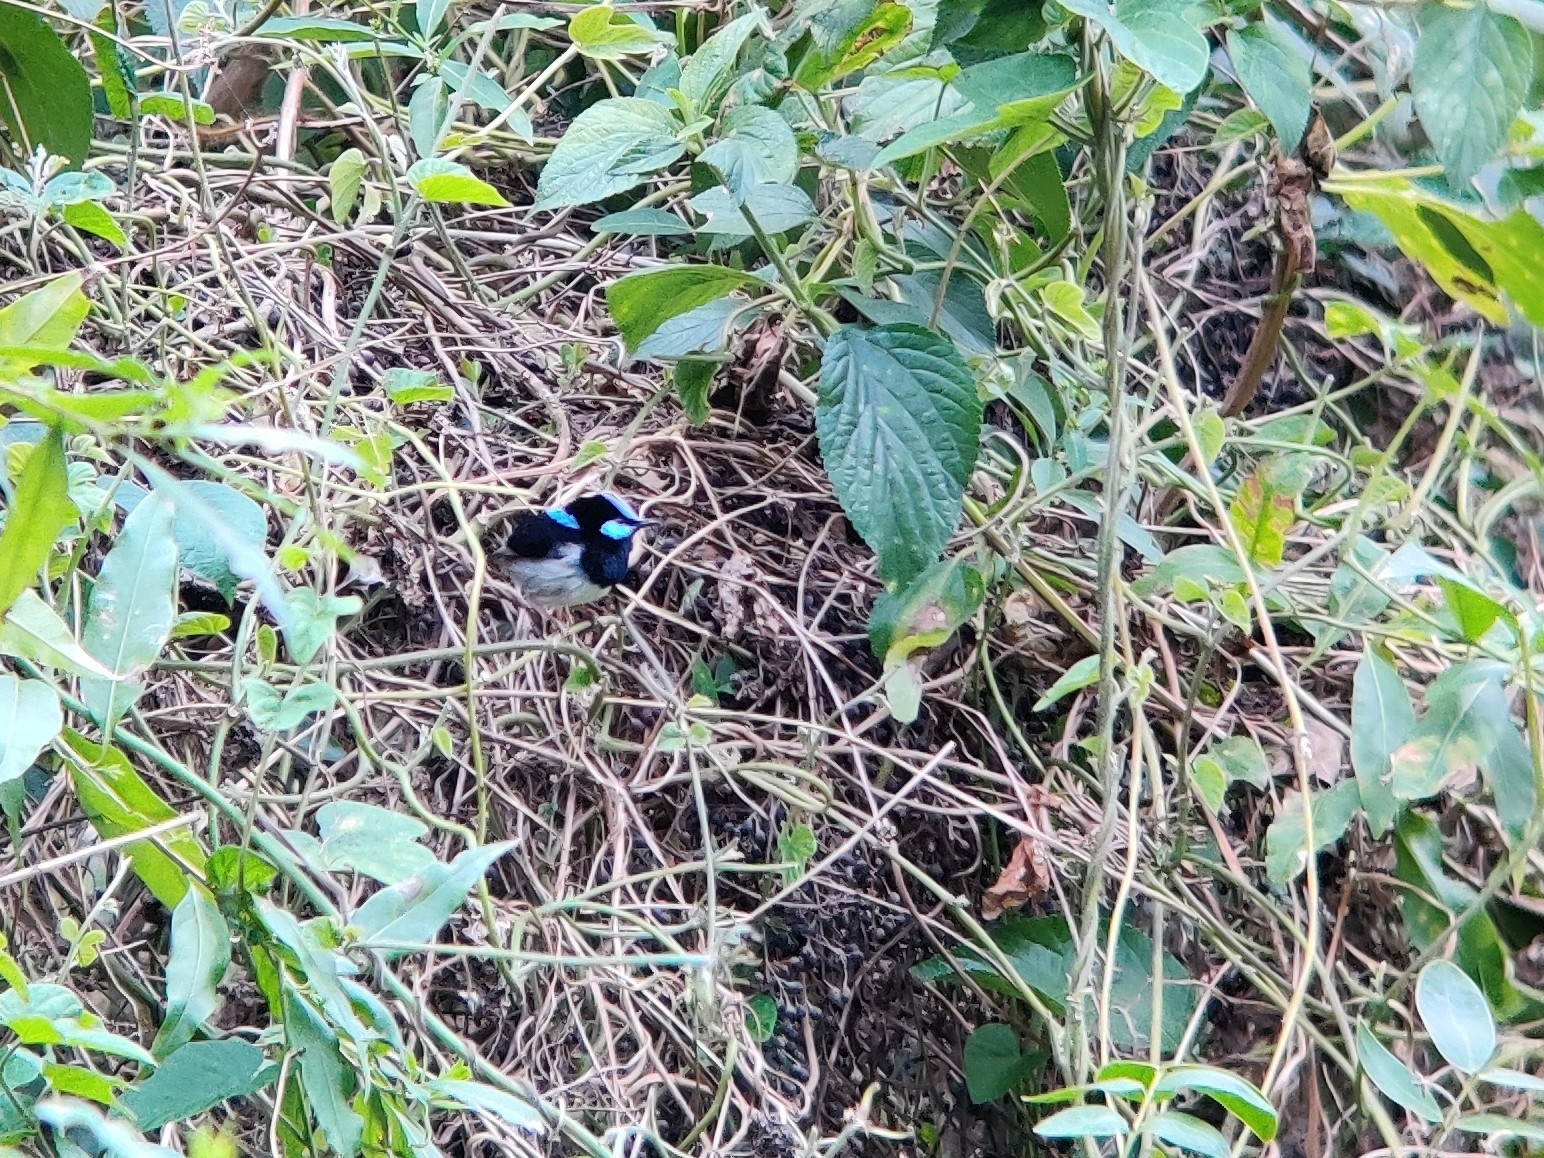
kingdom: Animalia
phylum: Chordata
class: Aves
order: Passeriformes
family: Maluridae
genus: Malurus
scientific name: Malurus cyaneus
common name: Superb fairywren
